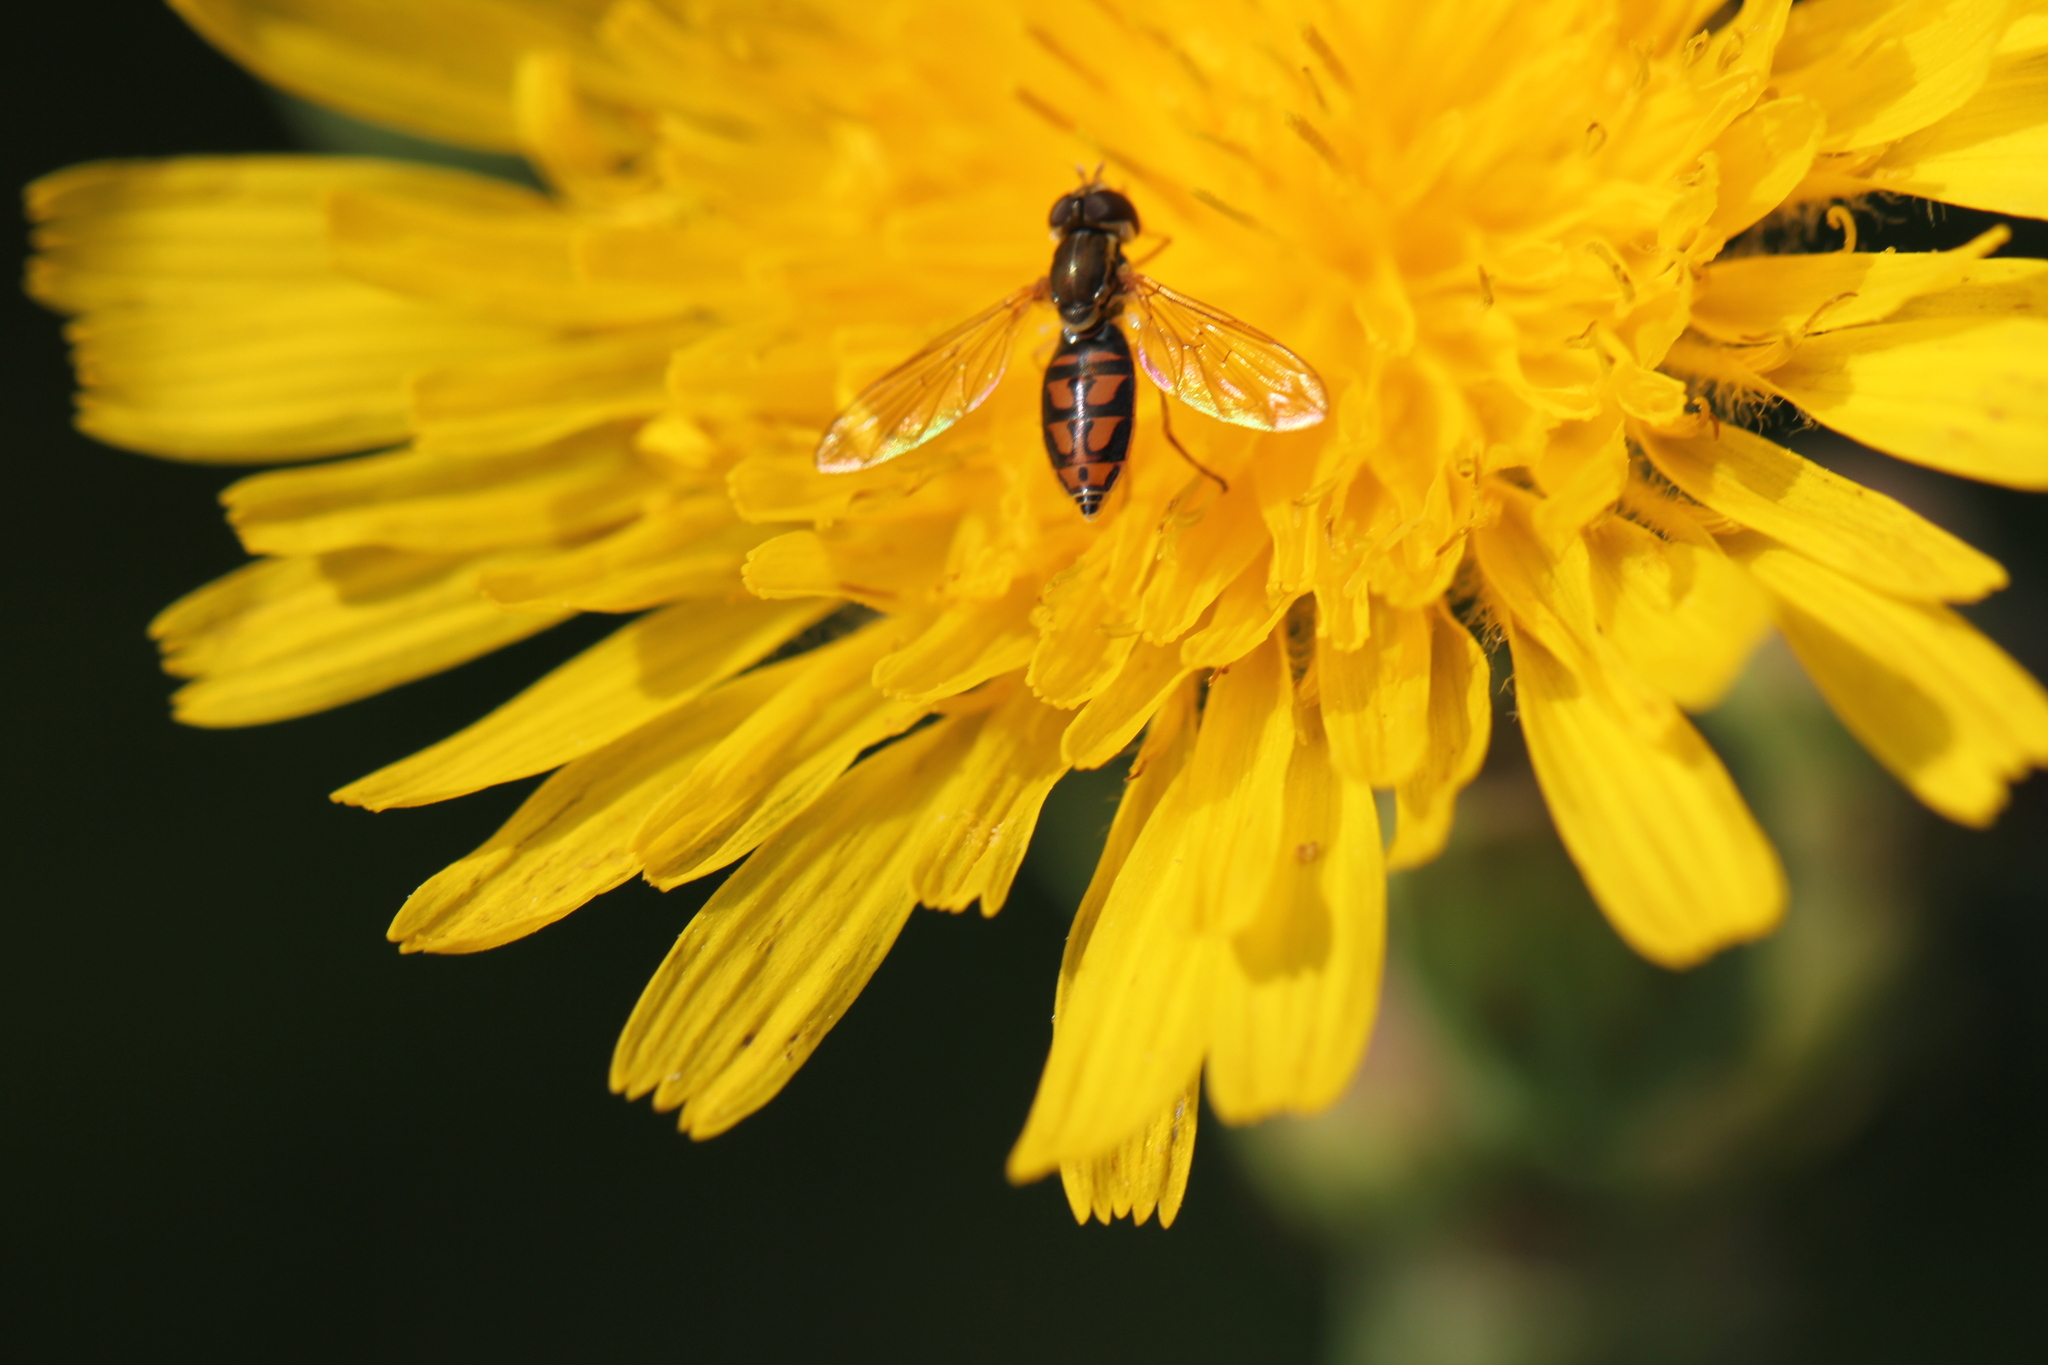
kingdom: Animalia
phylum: Arthropoda
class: Insecta
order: Diptera
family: Syrphidae
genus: Toxomerus
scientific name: Toxomerus marginatus
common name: Syrphid fly
